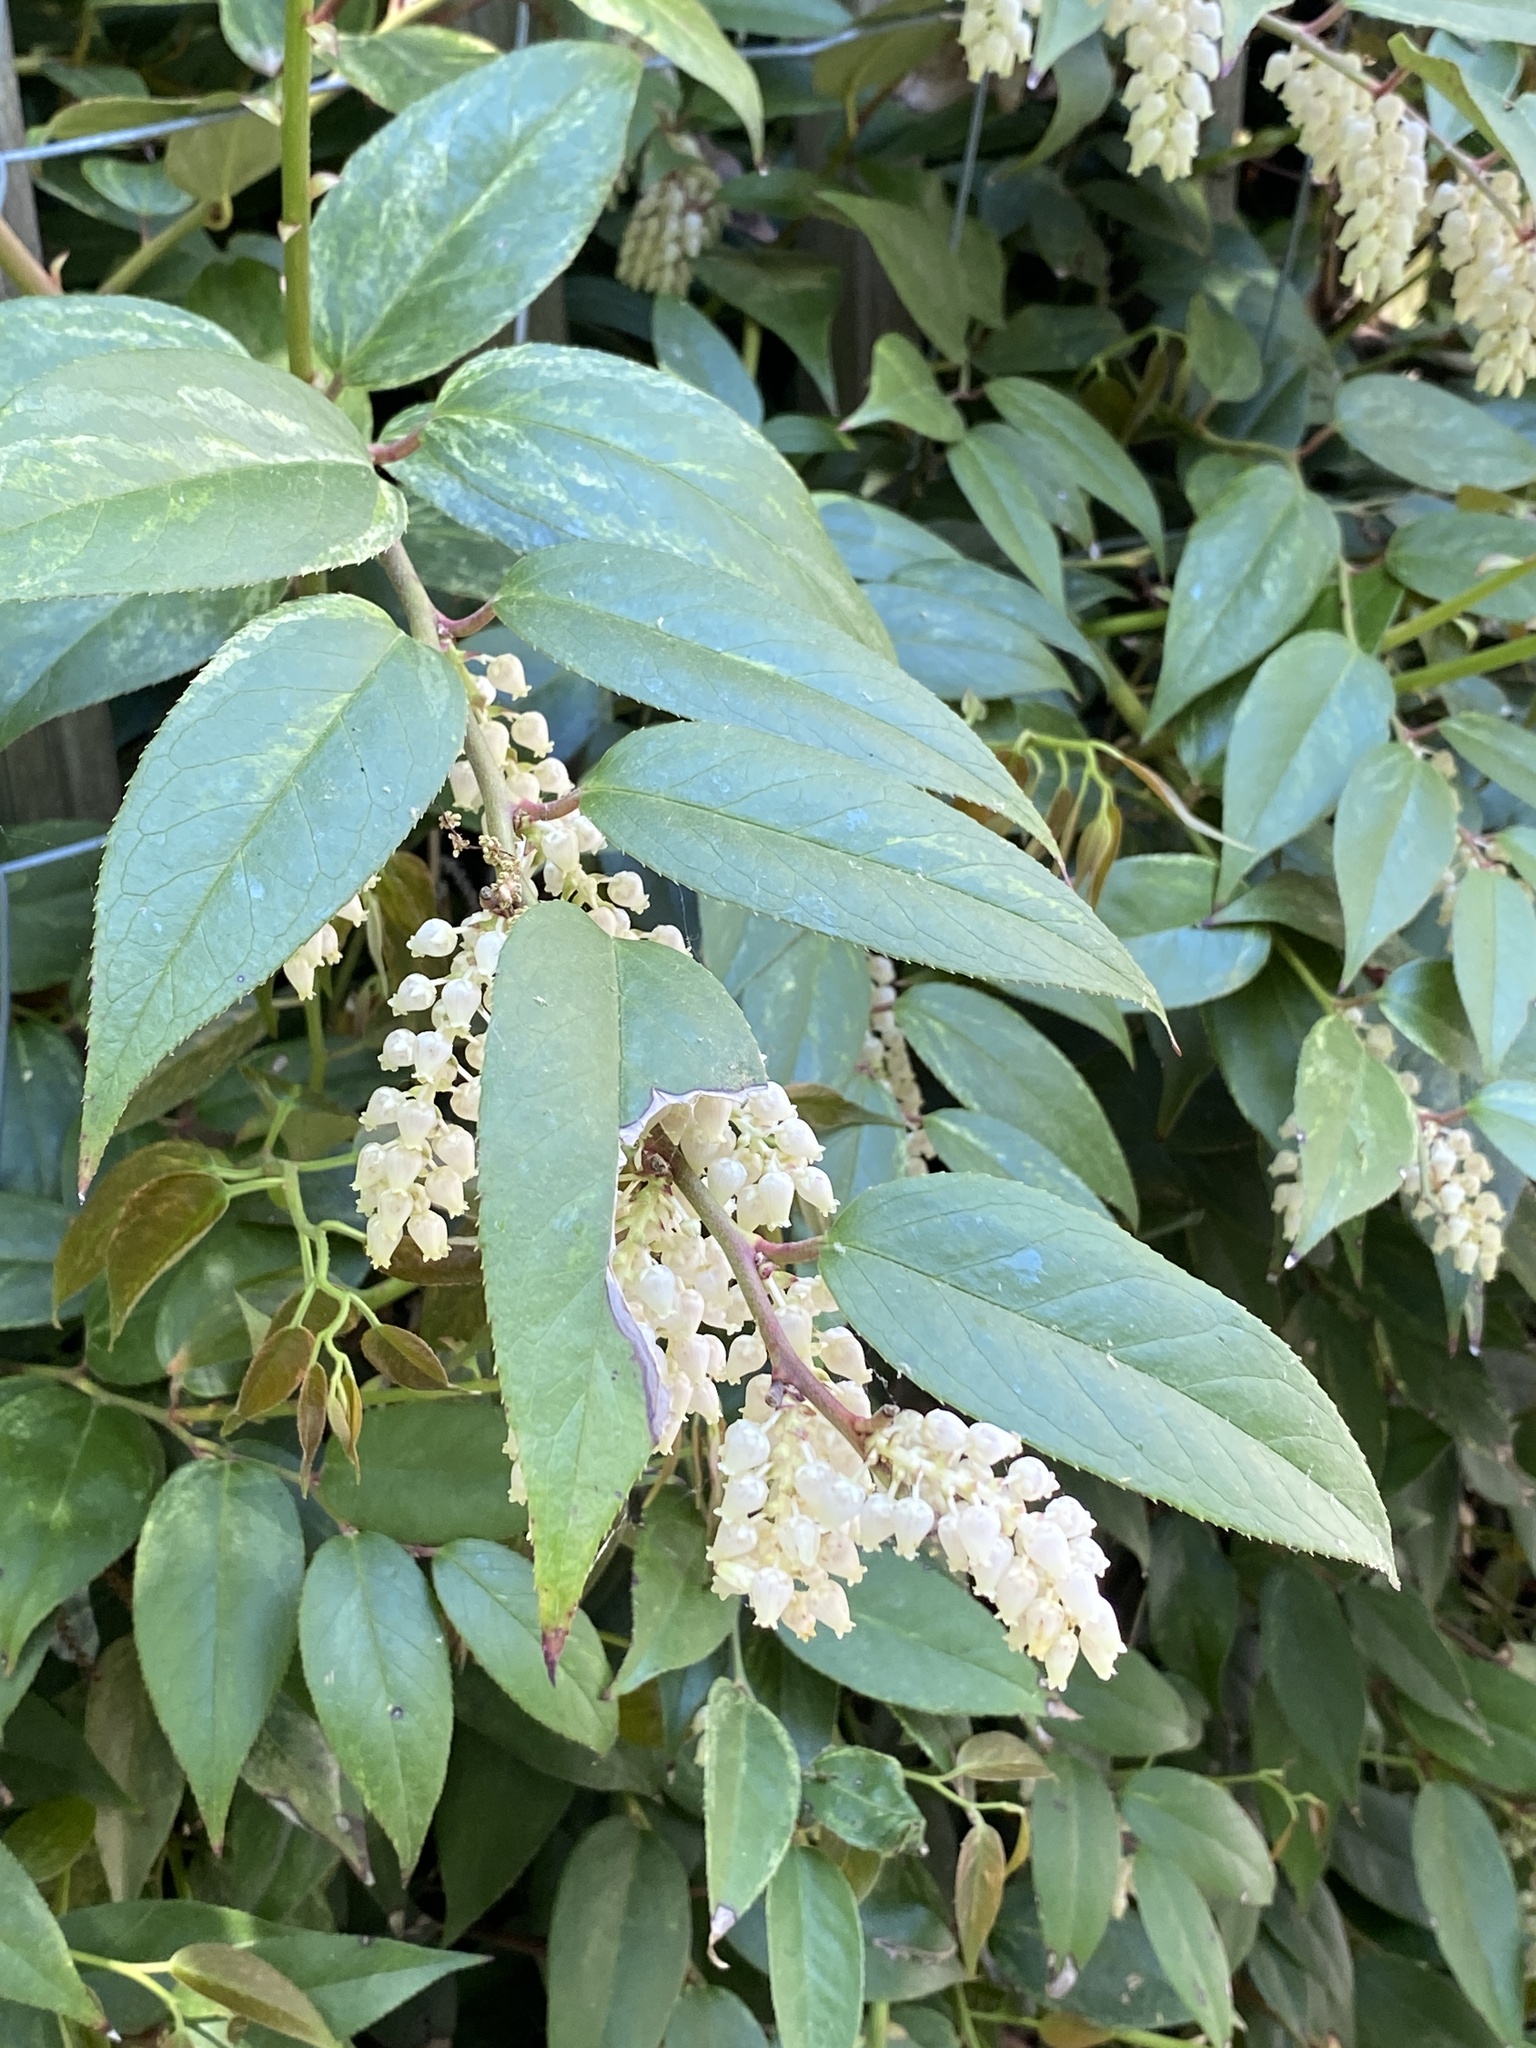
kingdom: Plantae
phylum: Tracheophyta
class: Magnoliopsida
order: Ericales
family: Ericaceae
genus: Leucothoe
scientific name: Leucothoe fontanesiana
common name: Fetterbush
